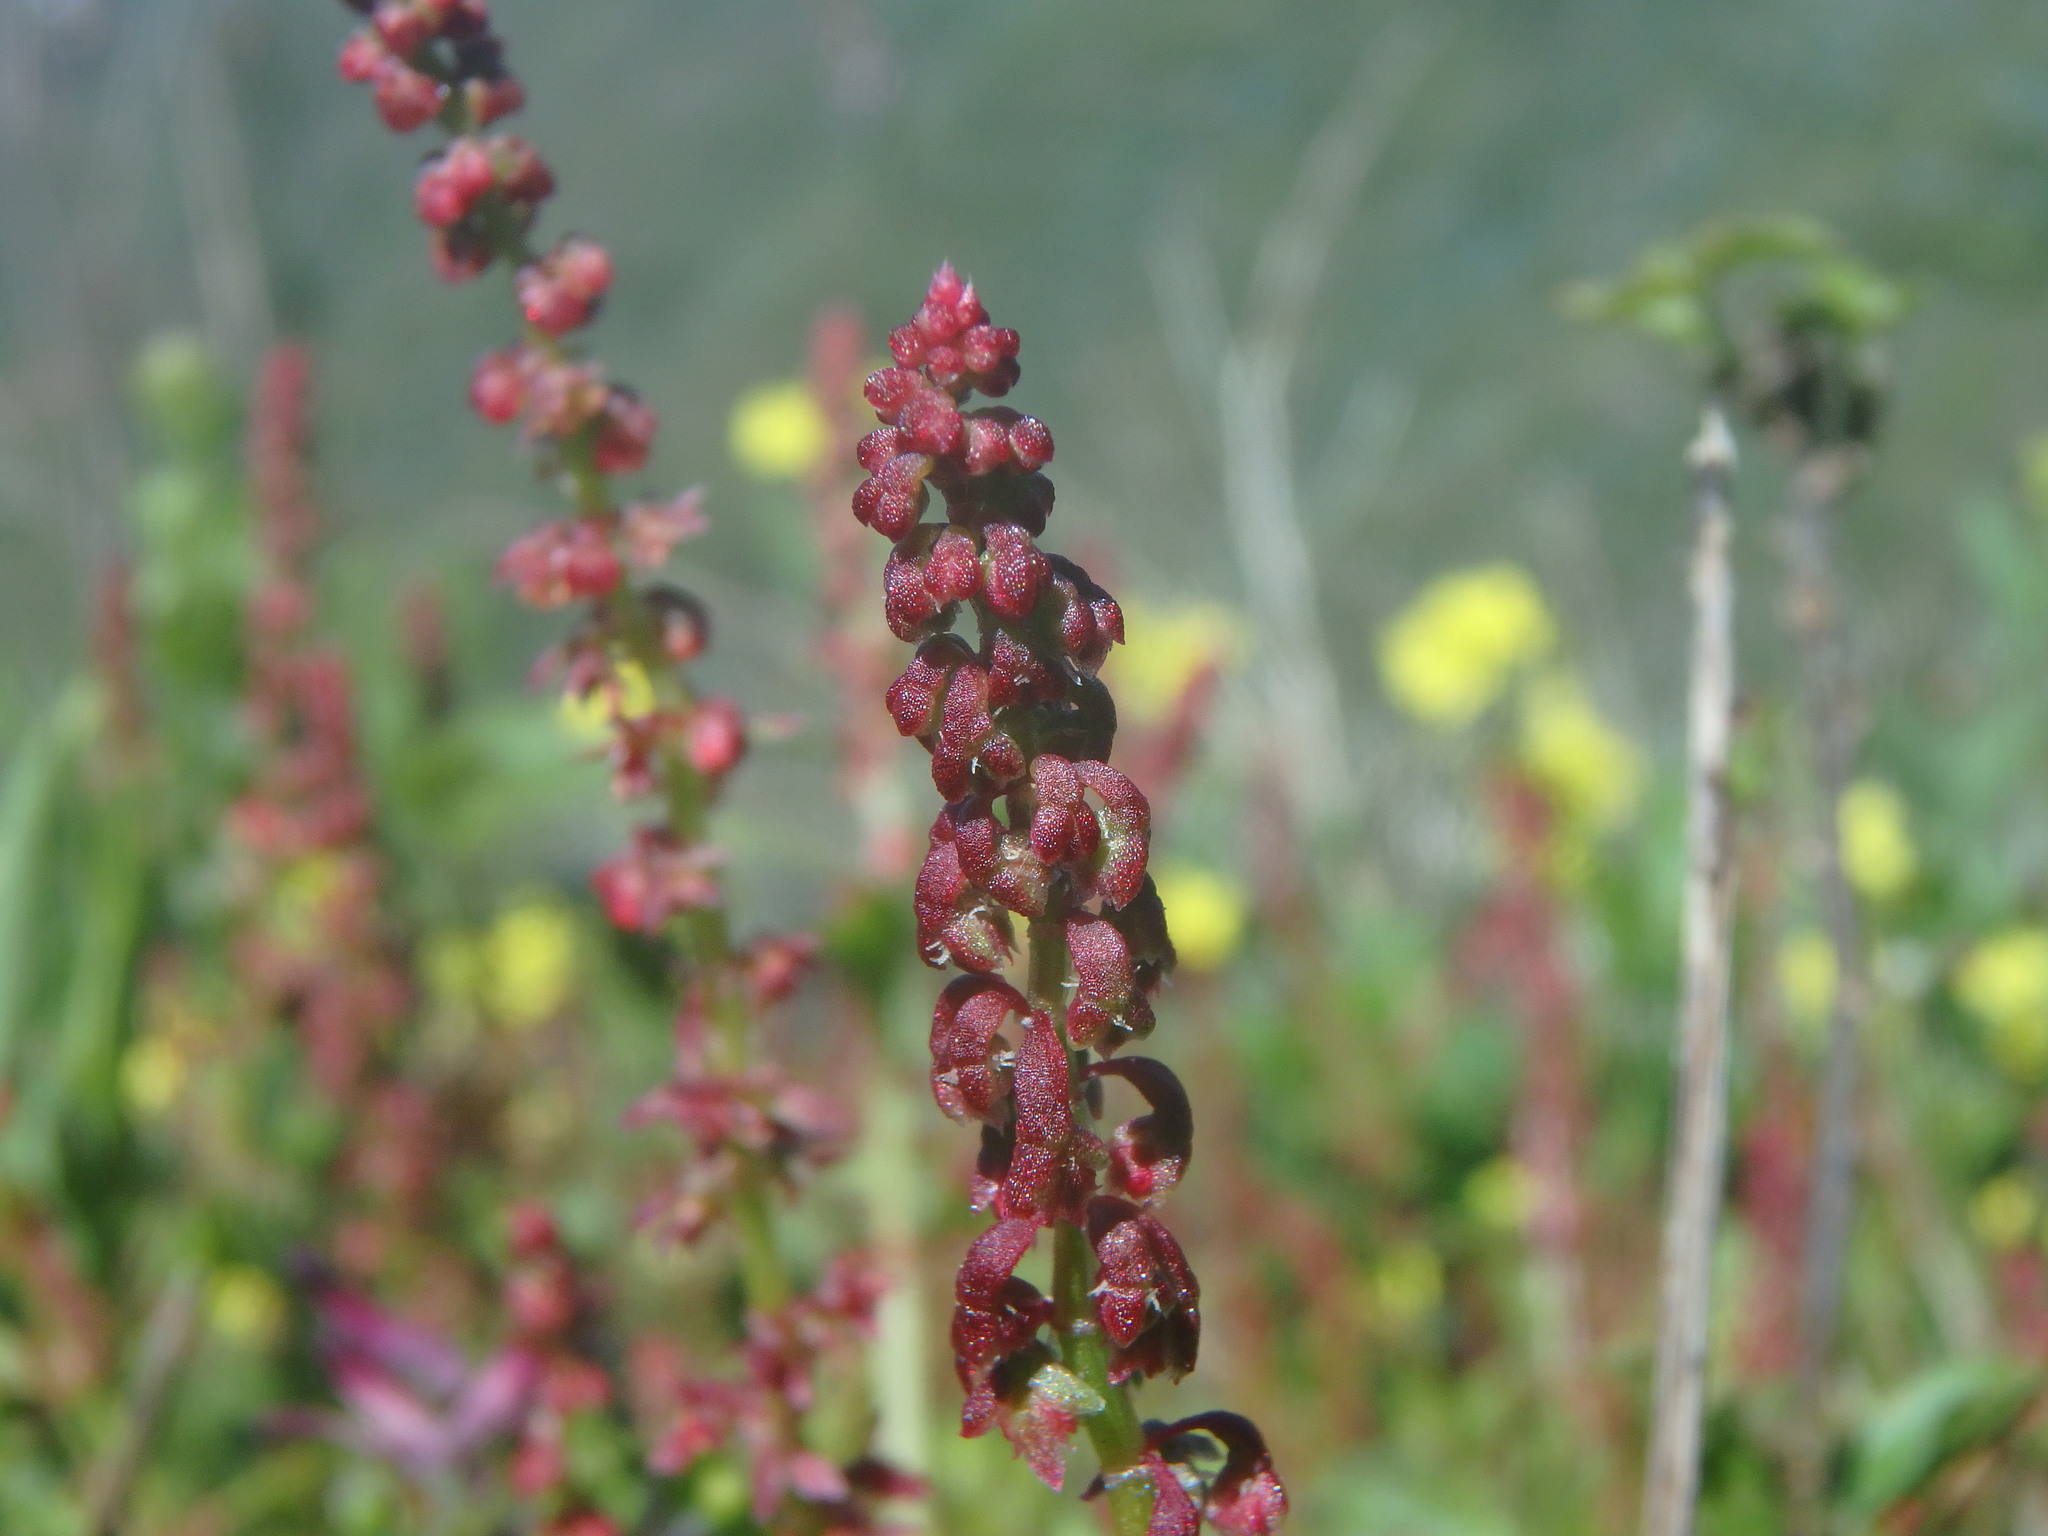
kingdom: Plantae
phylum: Tracheophyta
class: Magnoliopsida
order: Caryophyllales
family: Polygonaceae
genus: Rumex
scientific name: Rumex bucephalophorus
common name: Red dock
